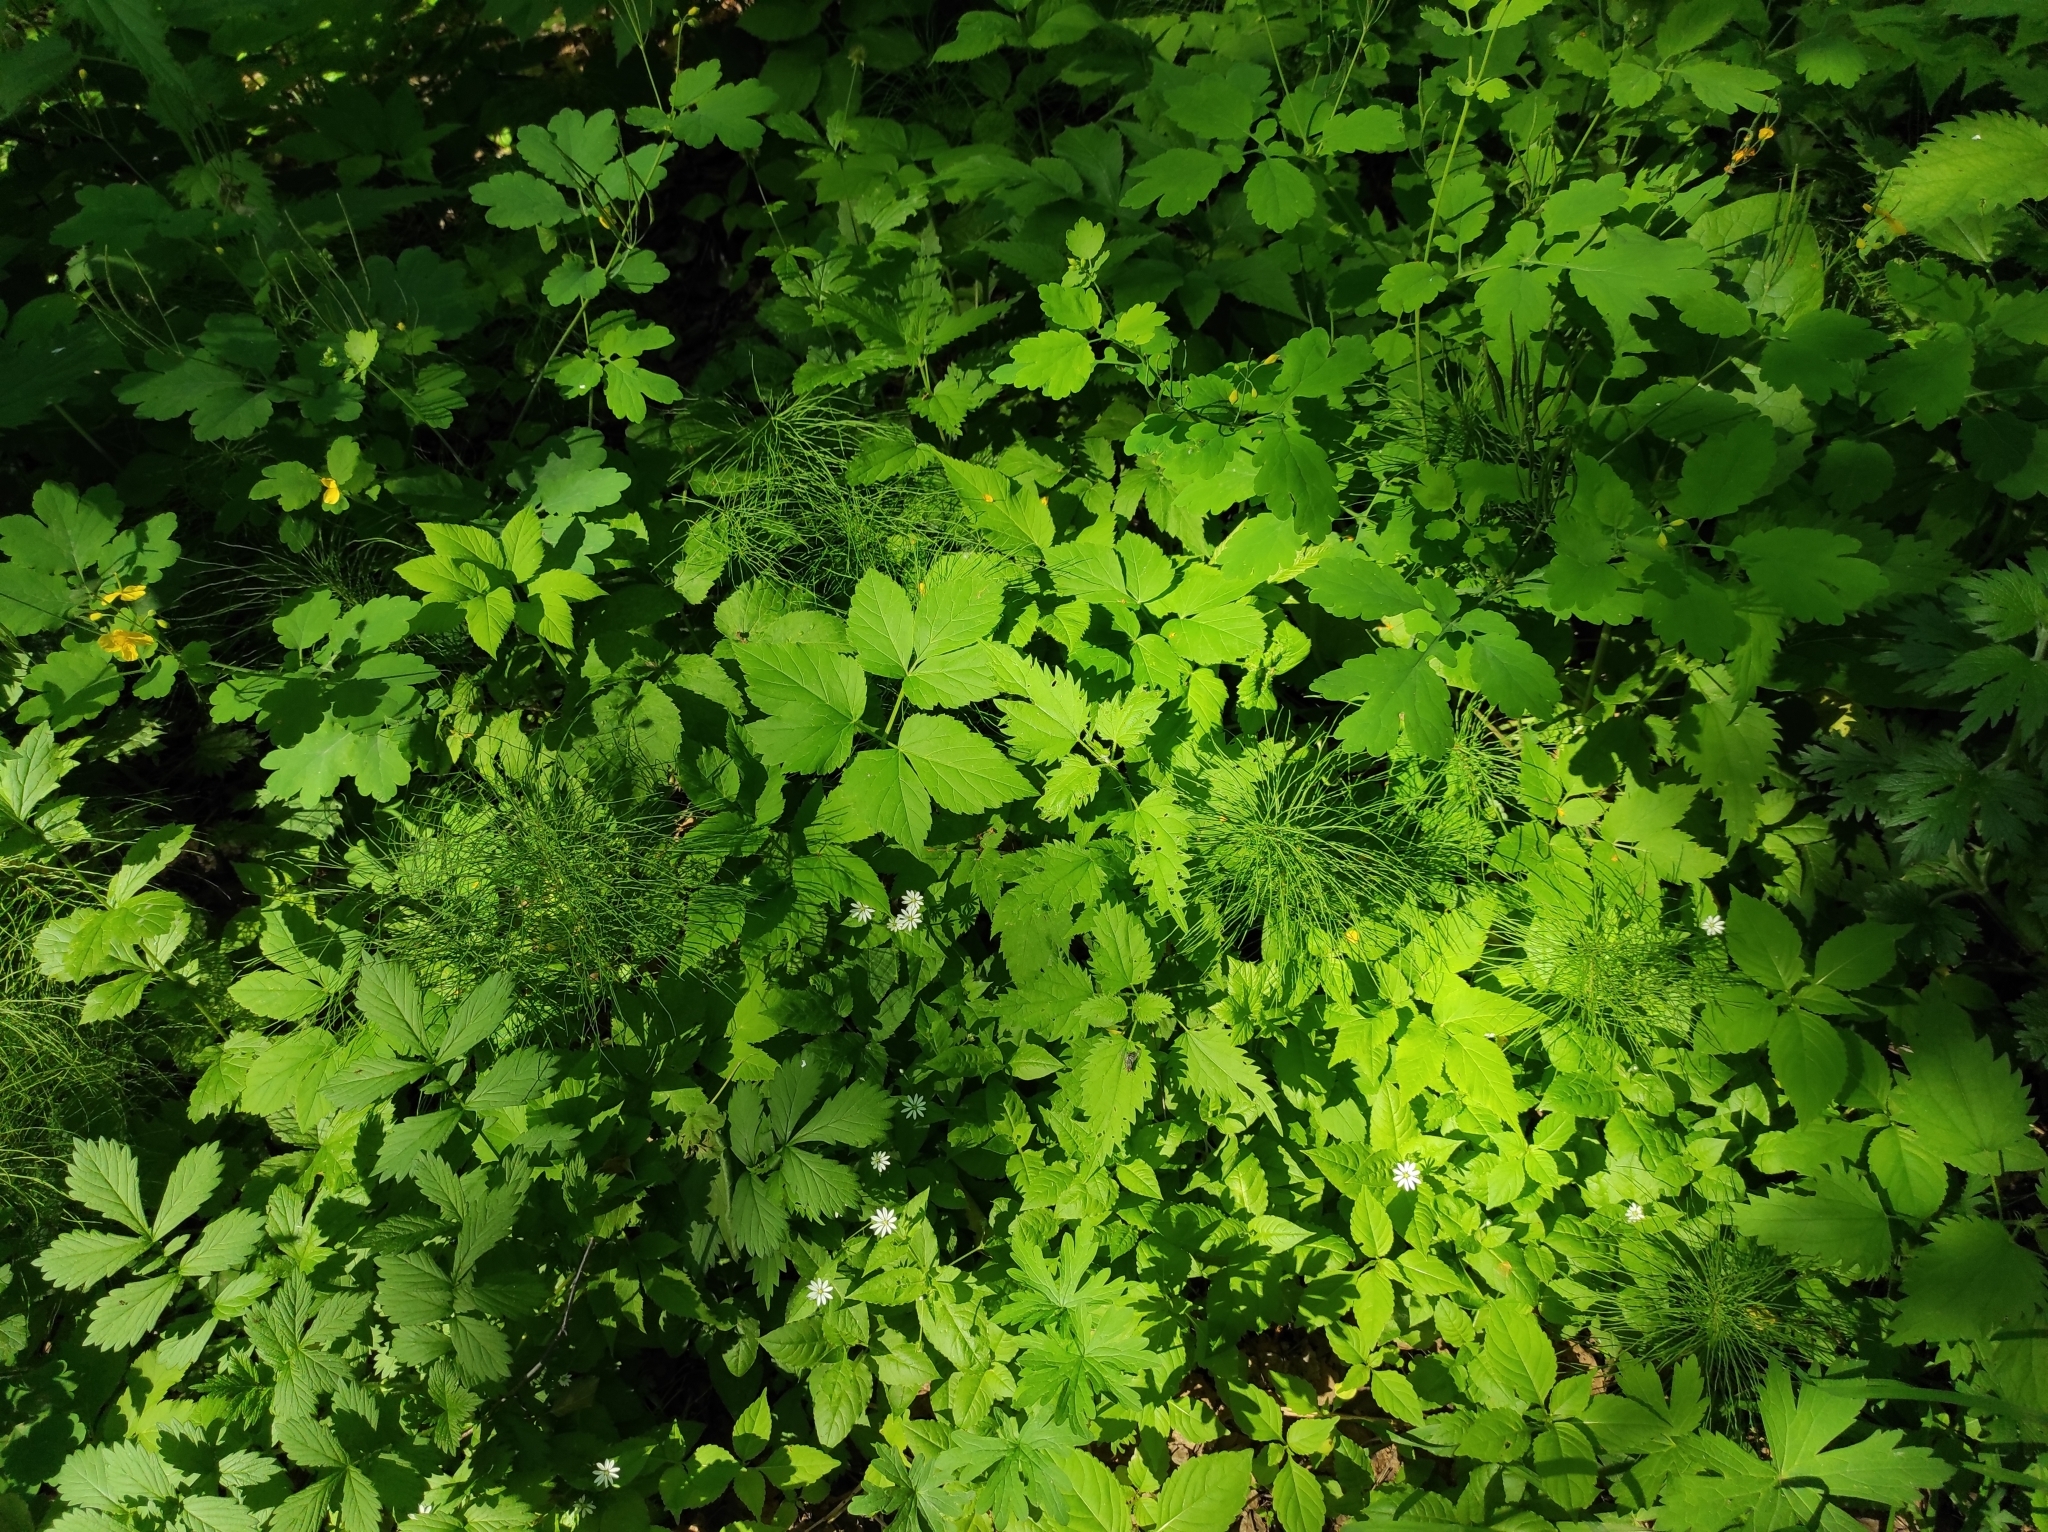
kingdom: Plantae
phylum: Tracheophyta
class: Magnoliopsida
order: Caryophyllales
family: Caryophyllaceae
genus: Stellaria
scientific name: Stellaria bungeana
